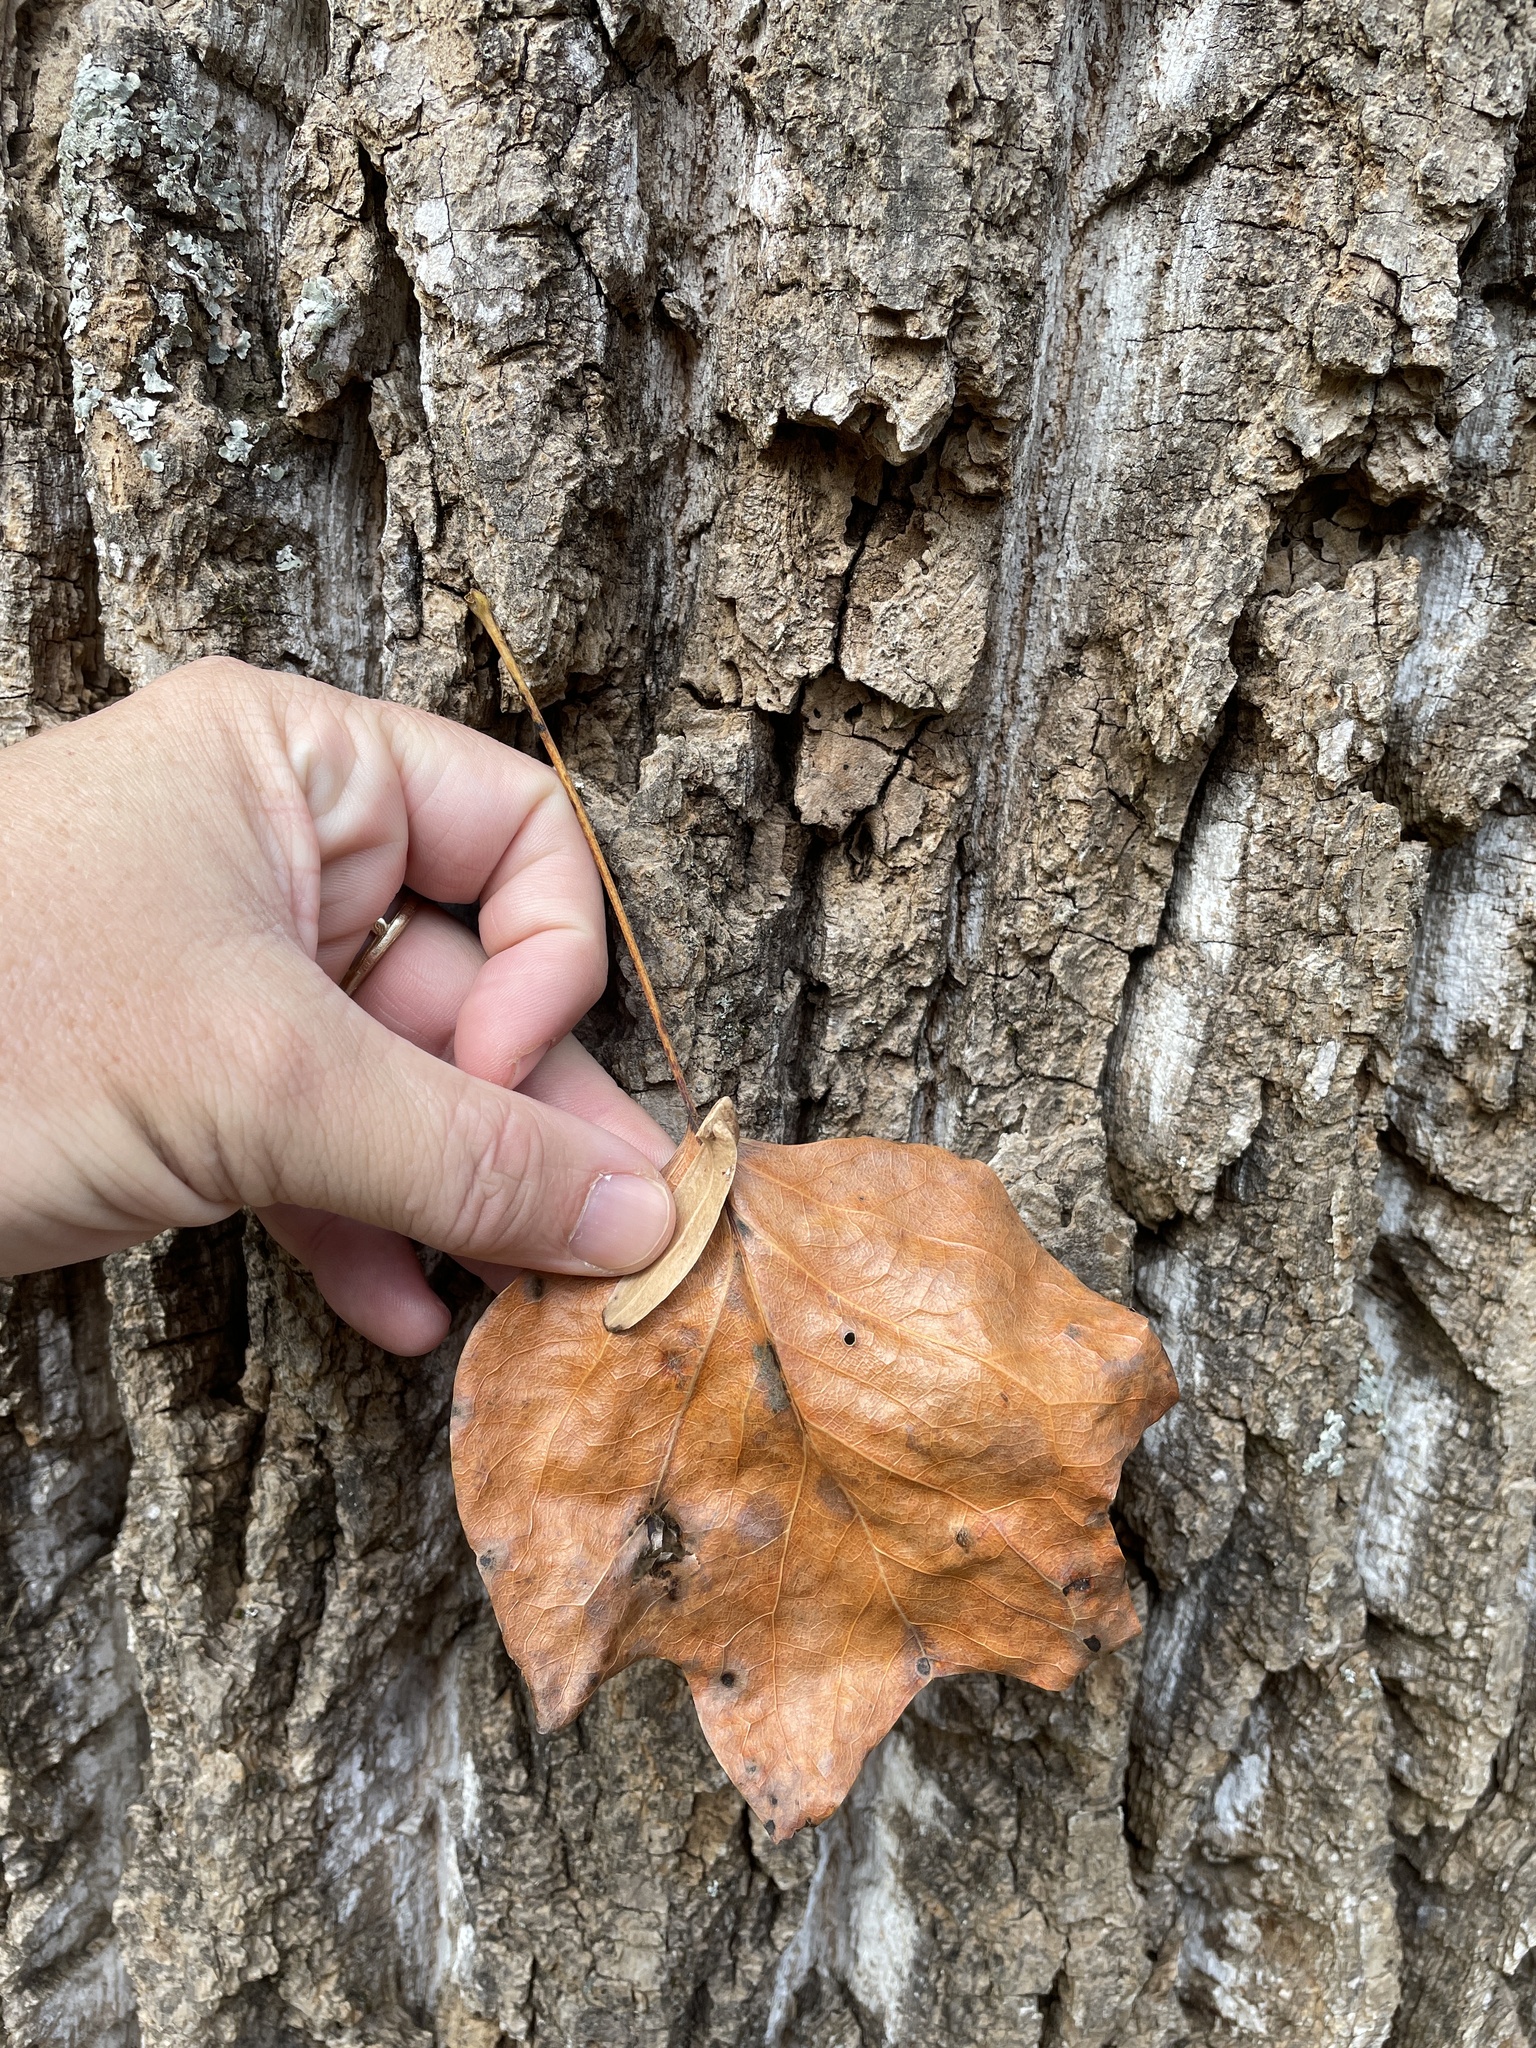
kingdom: Plantae
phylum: Tracheophyta
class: Magnoliopsida
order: Magnoliales
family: Magnoliaceae
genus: Liriodendron
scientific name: Liriodendron tulipifera
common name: Tulip tree
